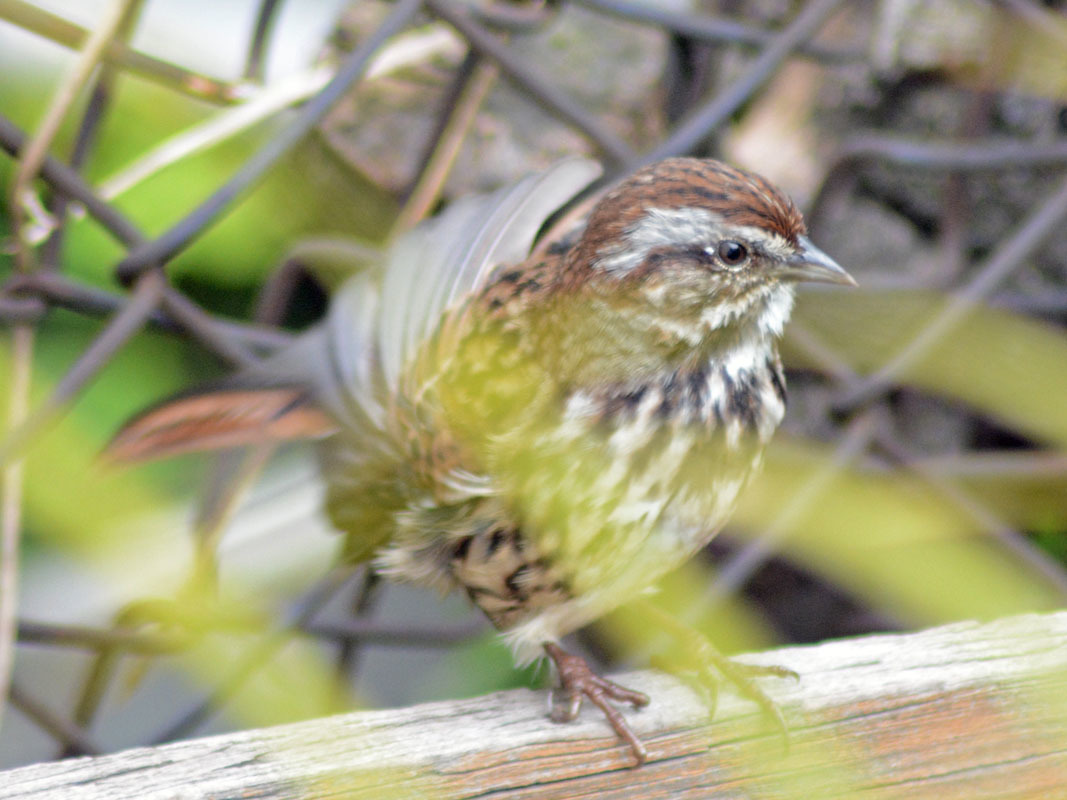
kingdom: Animalia
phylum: Chordata
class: Aves
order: Passeriformes
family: Passerellidae
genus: Melospiza
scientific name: Melospiza melodia
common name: Song sparrow
